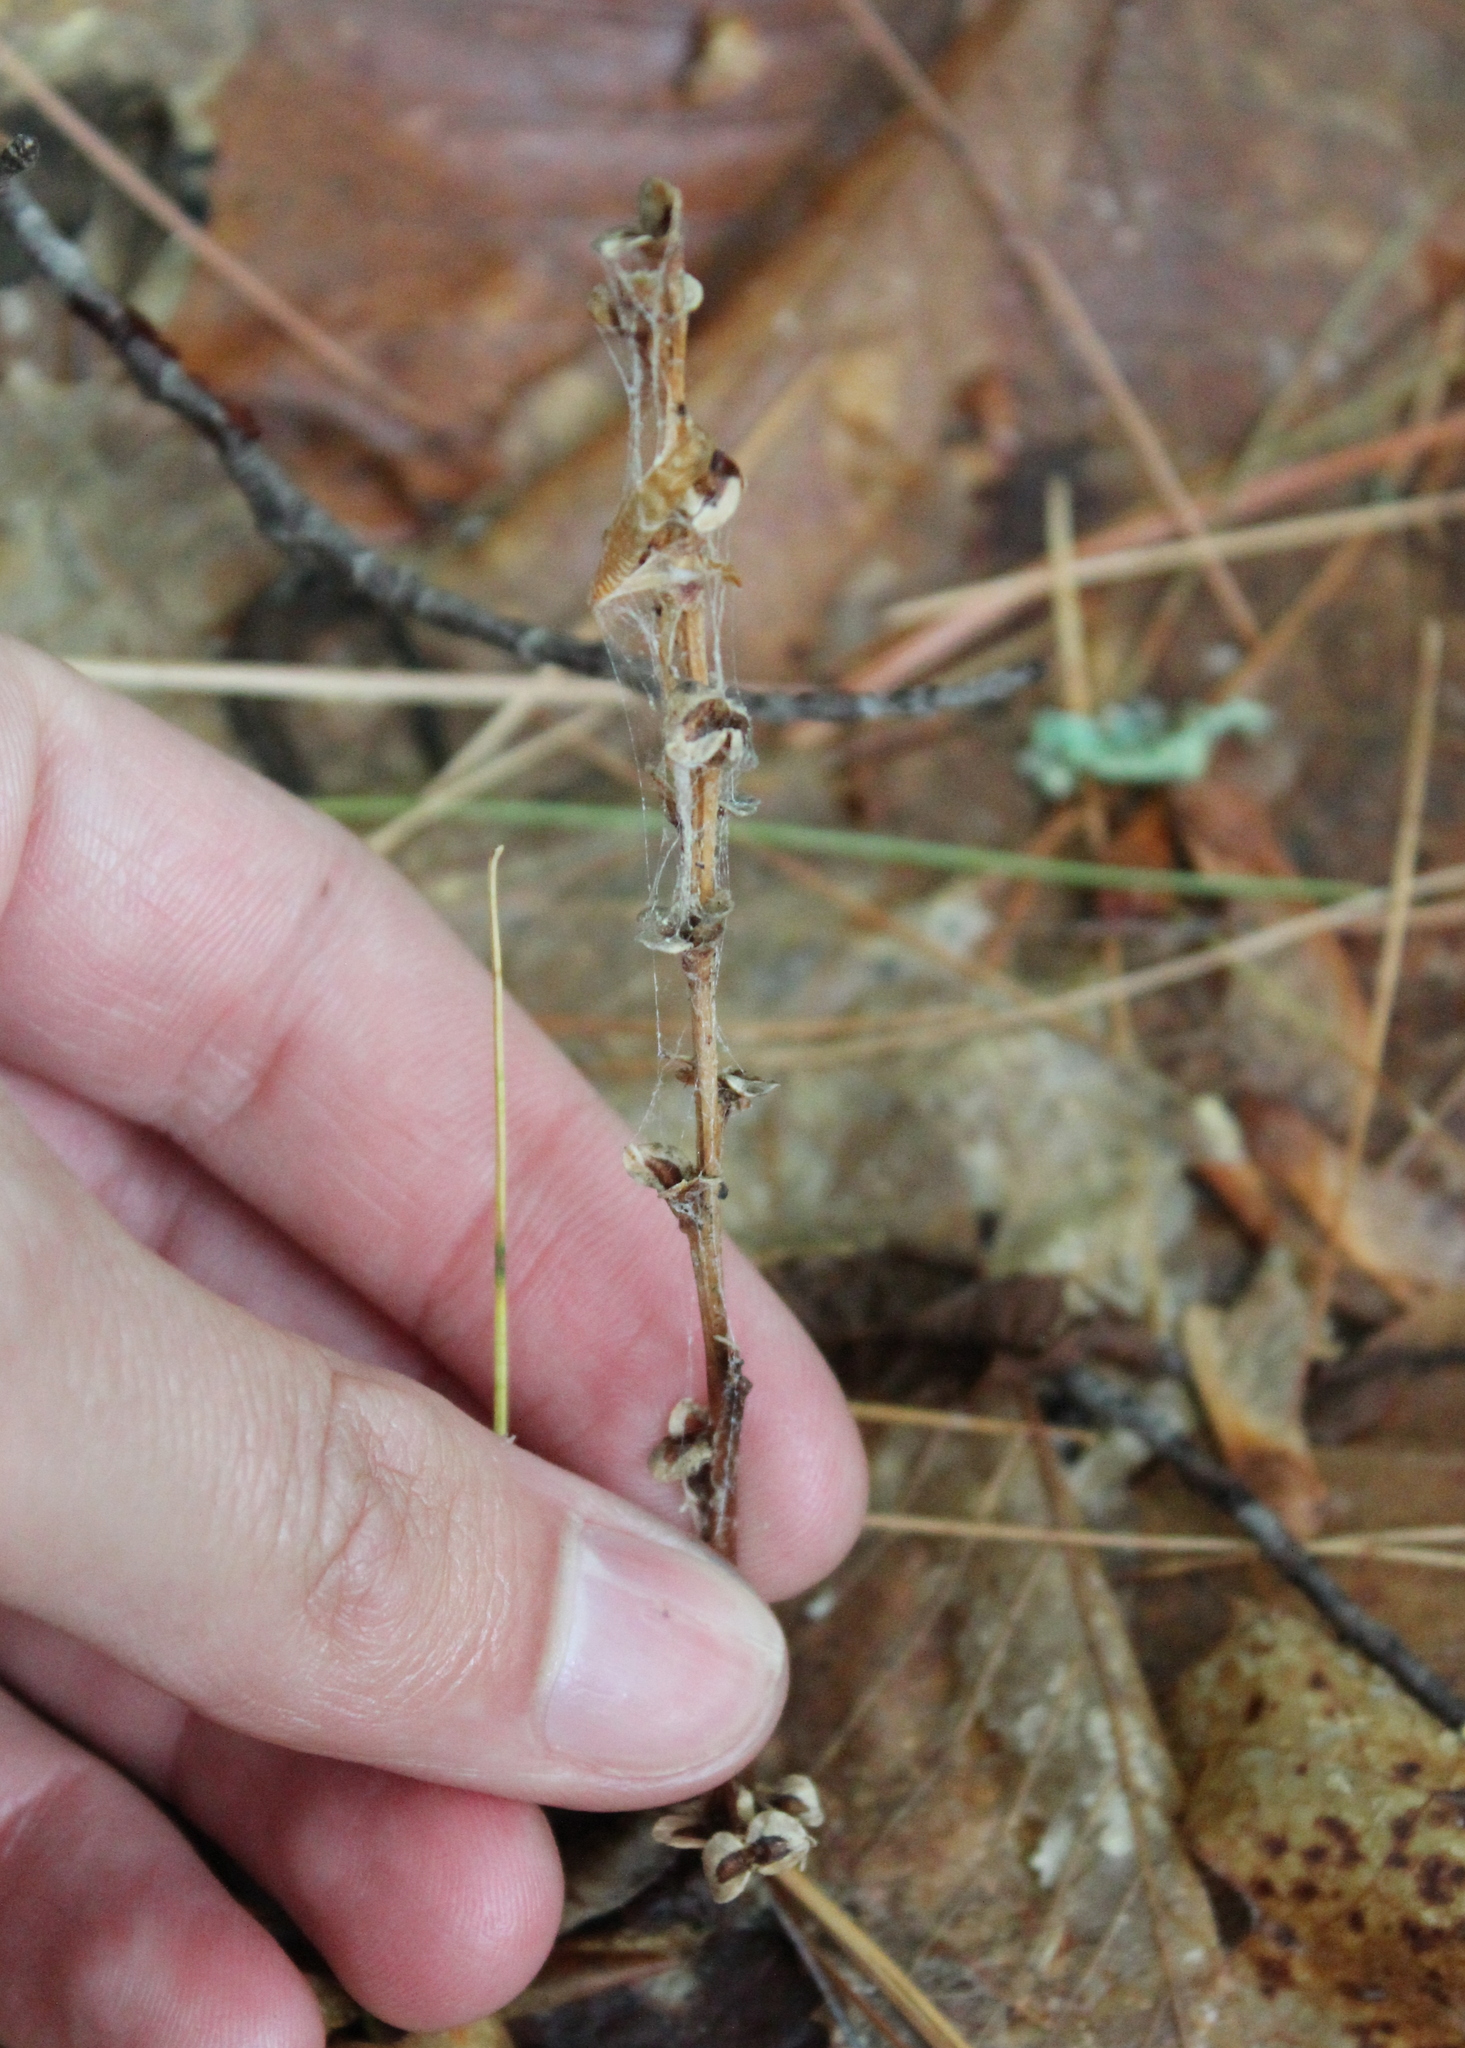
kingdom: Plantae
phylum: Tracheophyta
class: Magnoliopsida
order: Lamiales
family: Orobanchaceae
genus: Epifagus
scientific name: Epifagus virginiana
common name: Beechdrops
